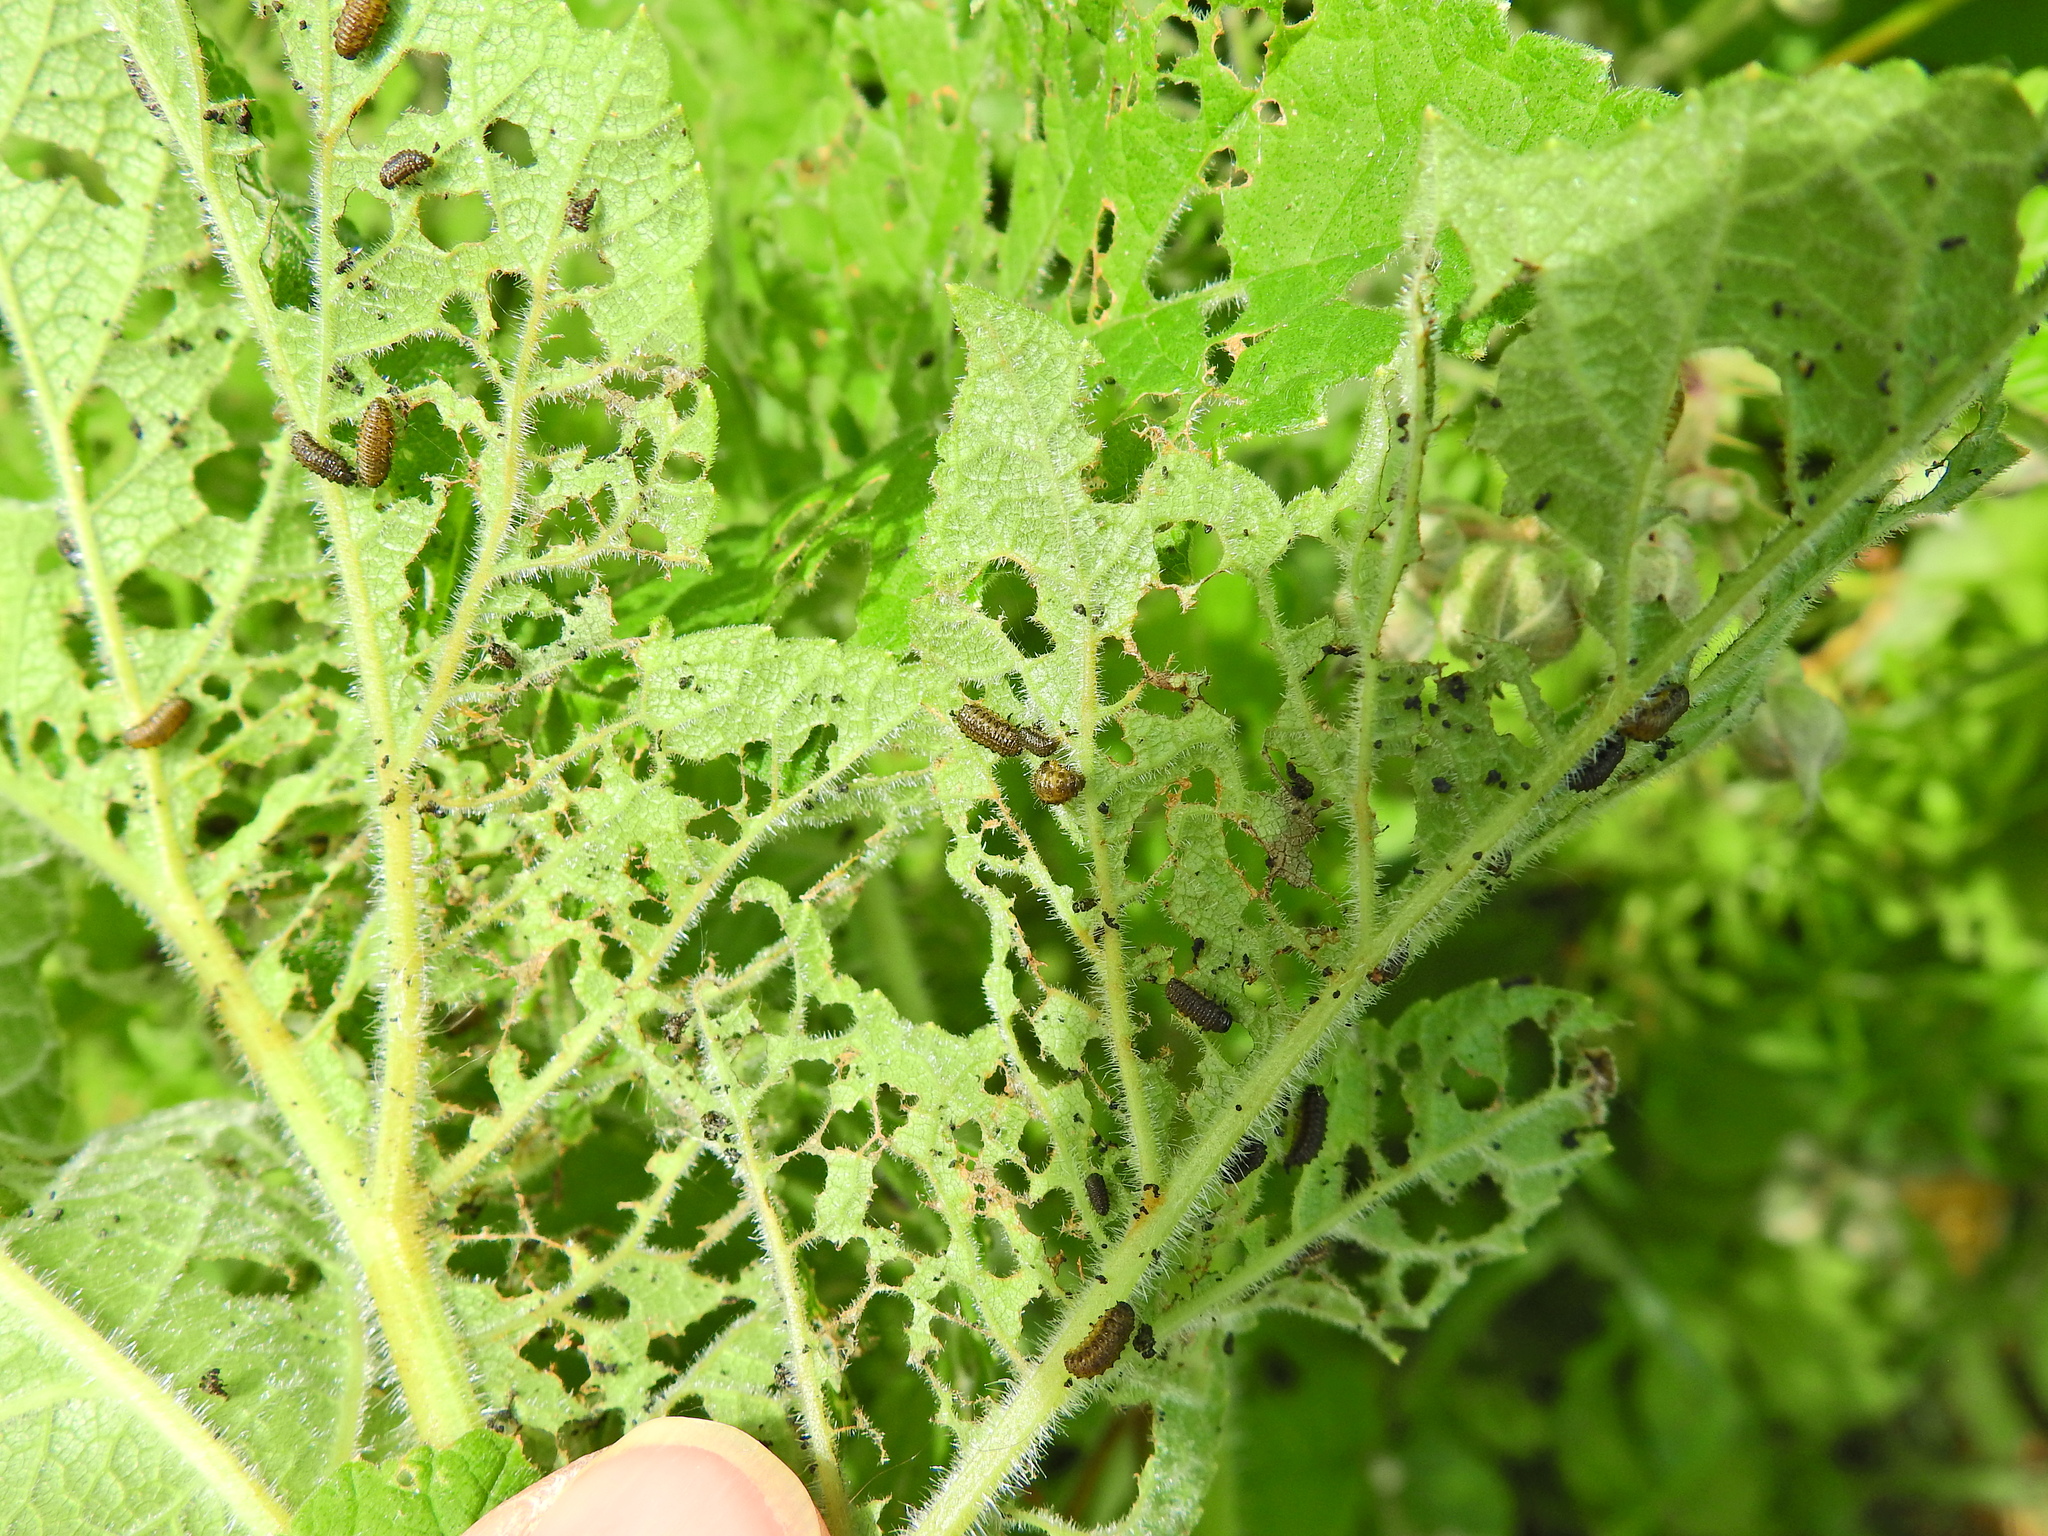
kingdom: Animalia
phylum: Arthropoda
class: Insecta
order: Coleoptera
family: Chrysomelidae
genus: Pyrrhalta
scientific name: Pyrrhalta viburni
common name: Guelder-rose leaf beetle
